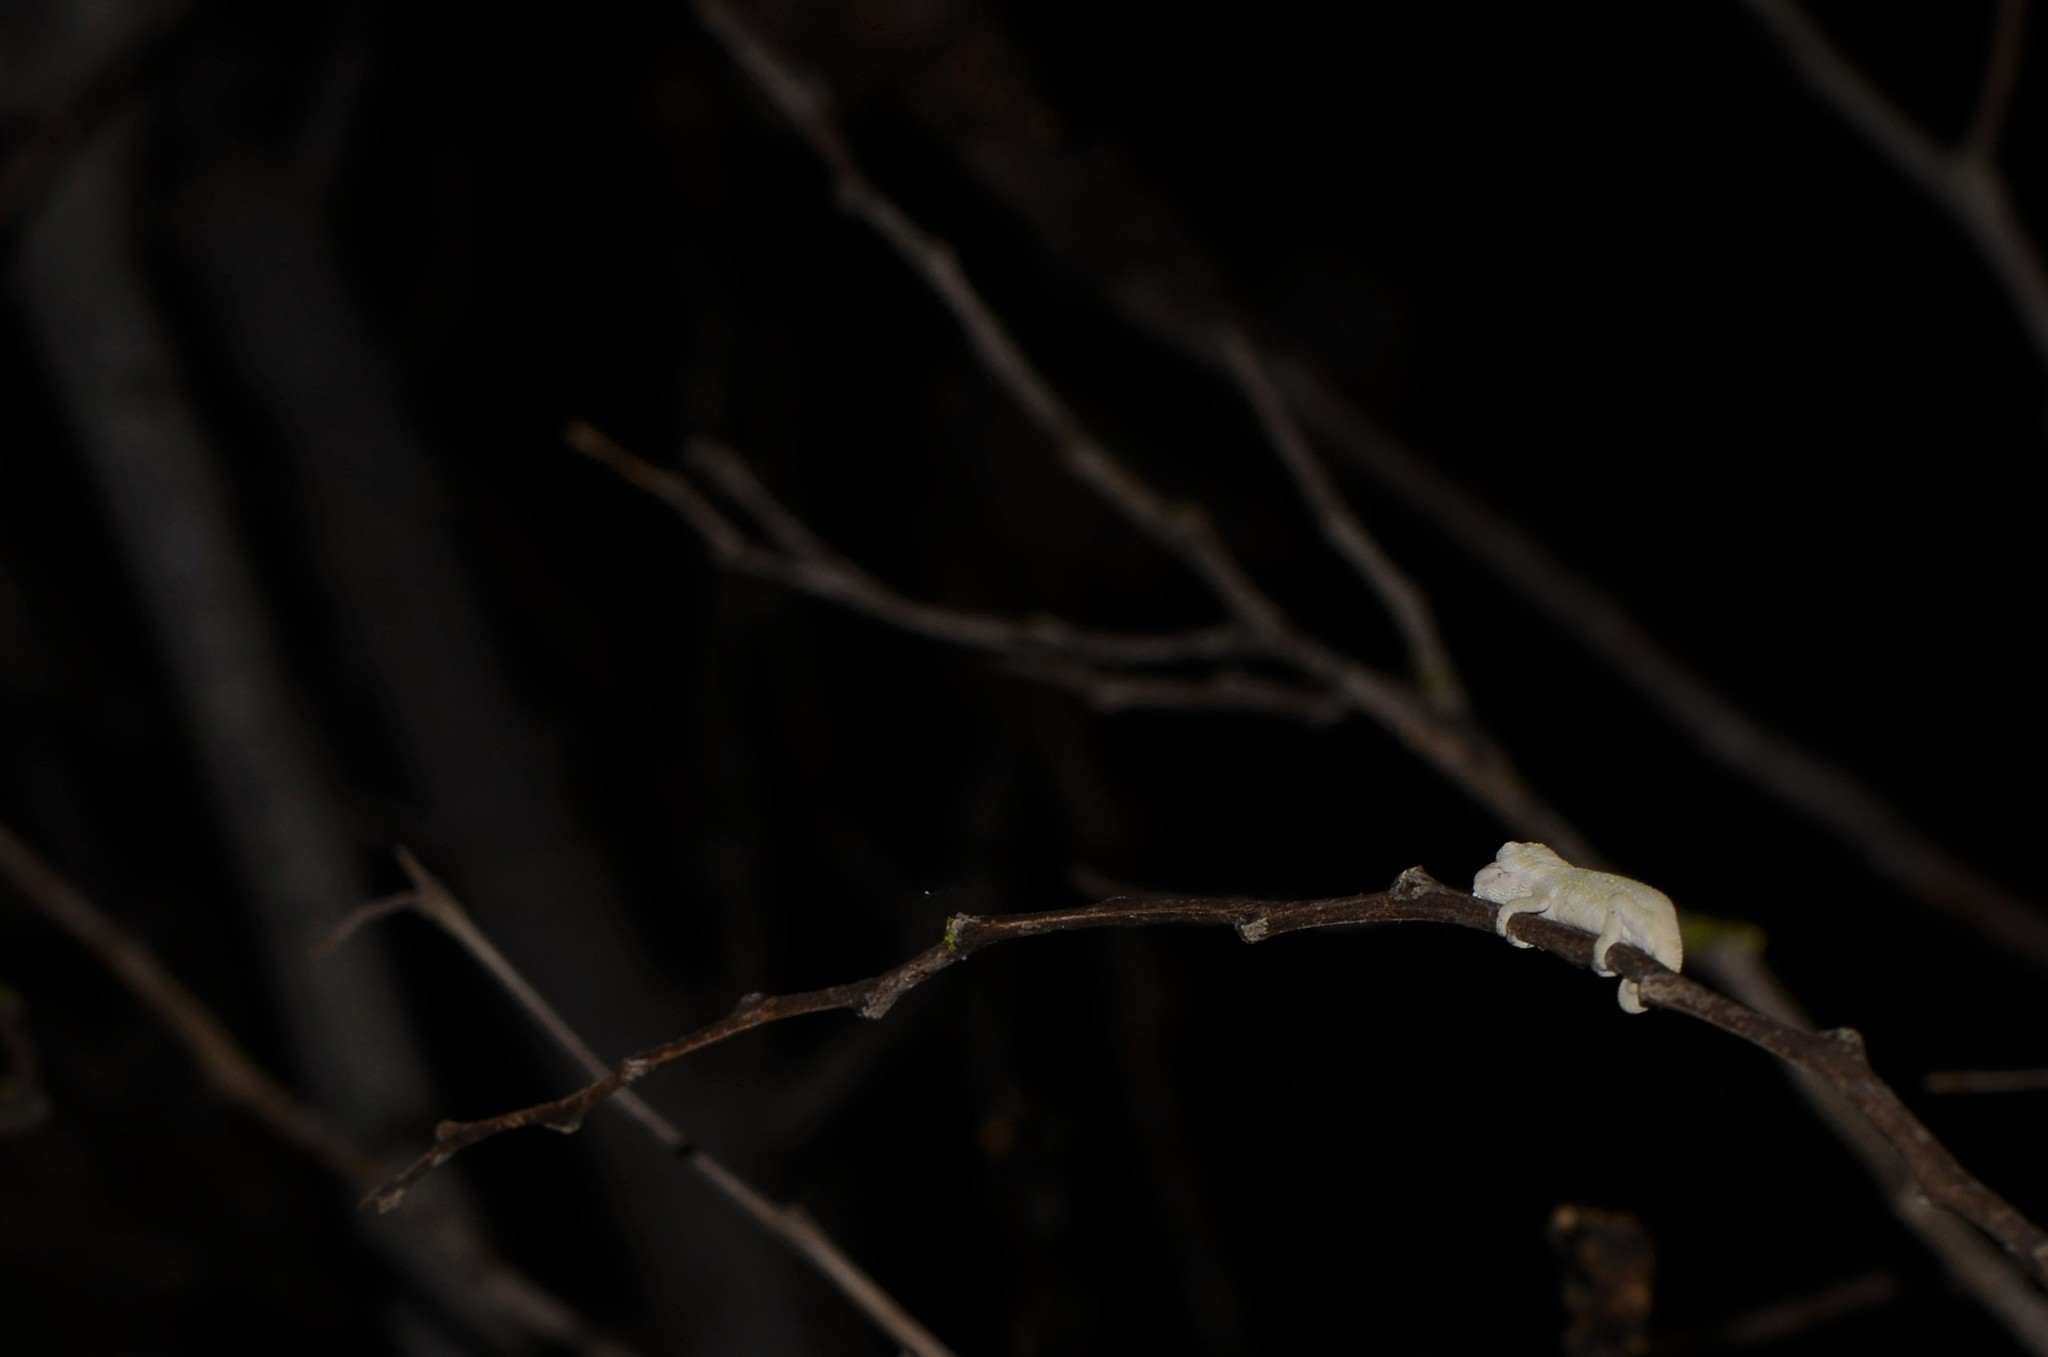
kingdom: Animalia
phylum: Chordata
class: Squamata
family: Chamaeleonidae
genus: Bradypodion
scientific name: Bradypodion pumilum
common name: Cape dwarf chameleon
